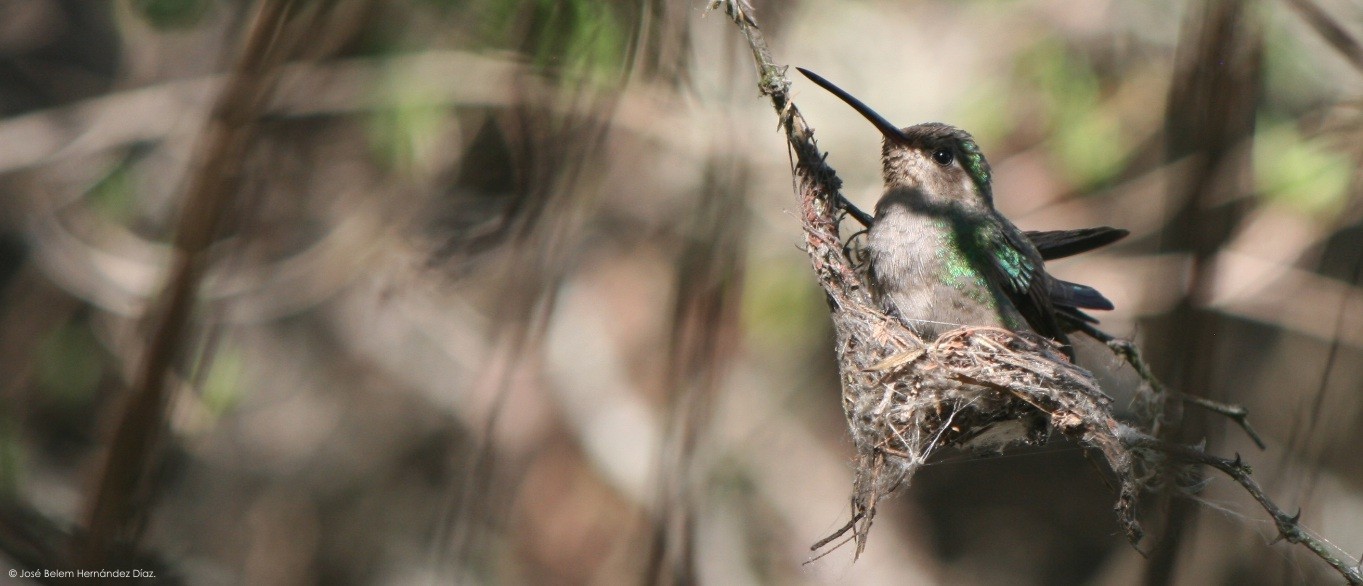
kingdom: Animalia
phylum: Chordata
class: Aves
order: Apodiformes
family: Trochilidae
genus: Cynanthus
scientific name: Cynanthus latirostris
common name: Broad-billed hummingbird
